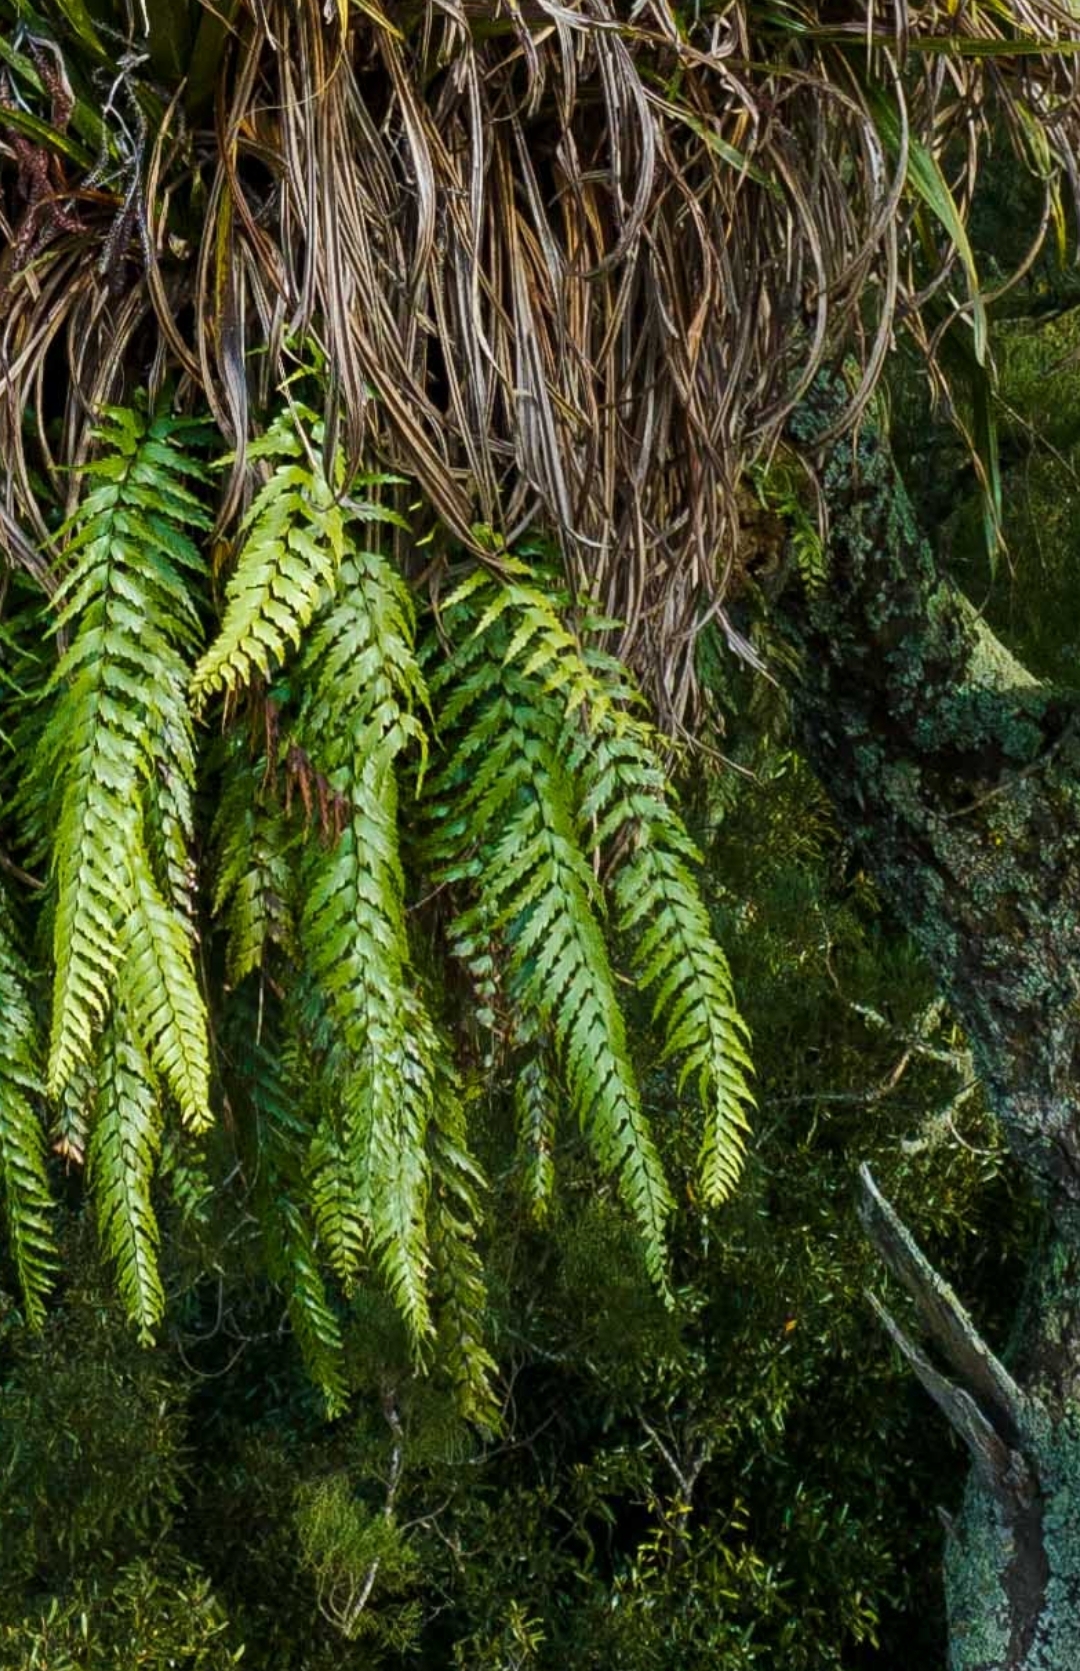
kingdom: Plantae
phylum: Tracheophyta
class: Polypodiopsida
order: Polypodiales
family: Aspleniaceae
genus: Asplenium
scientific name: Asplenium polyodon
